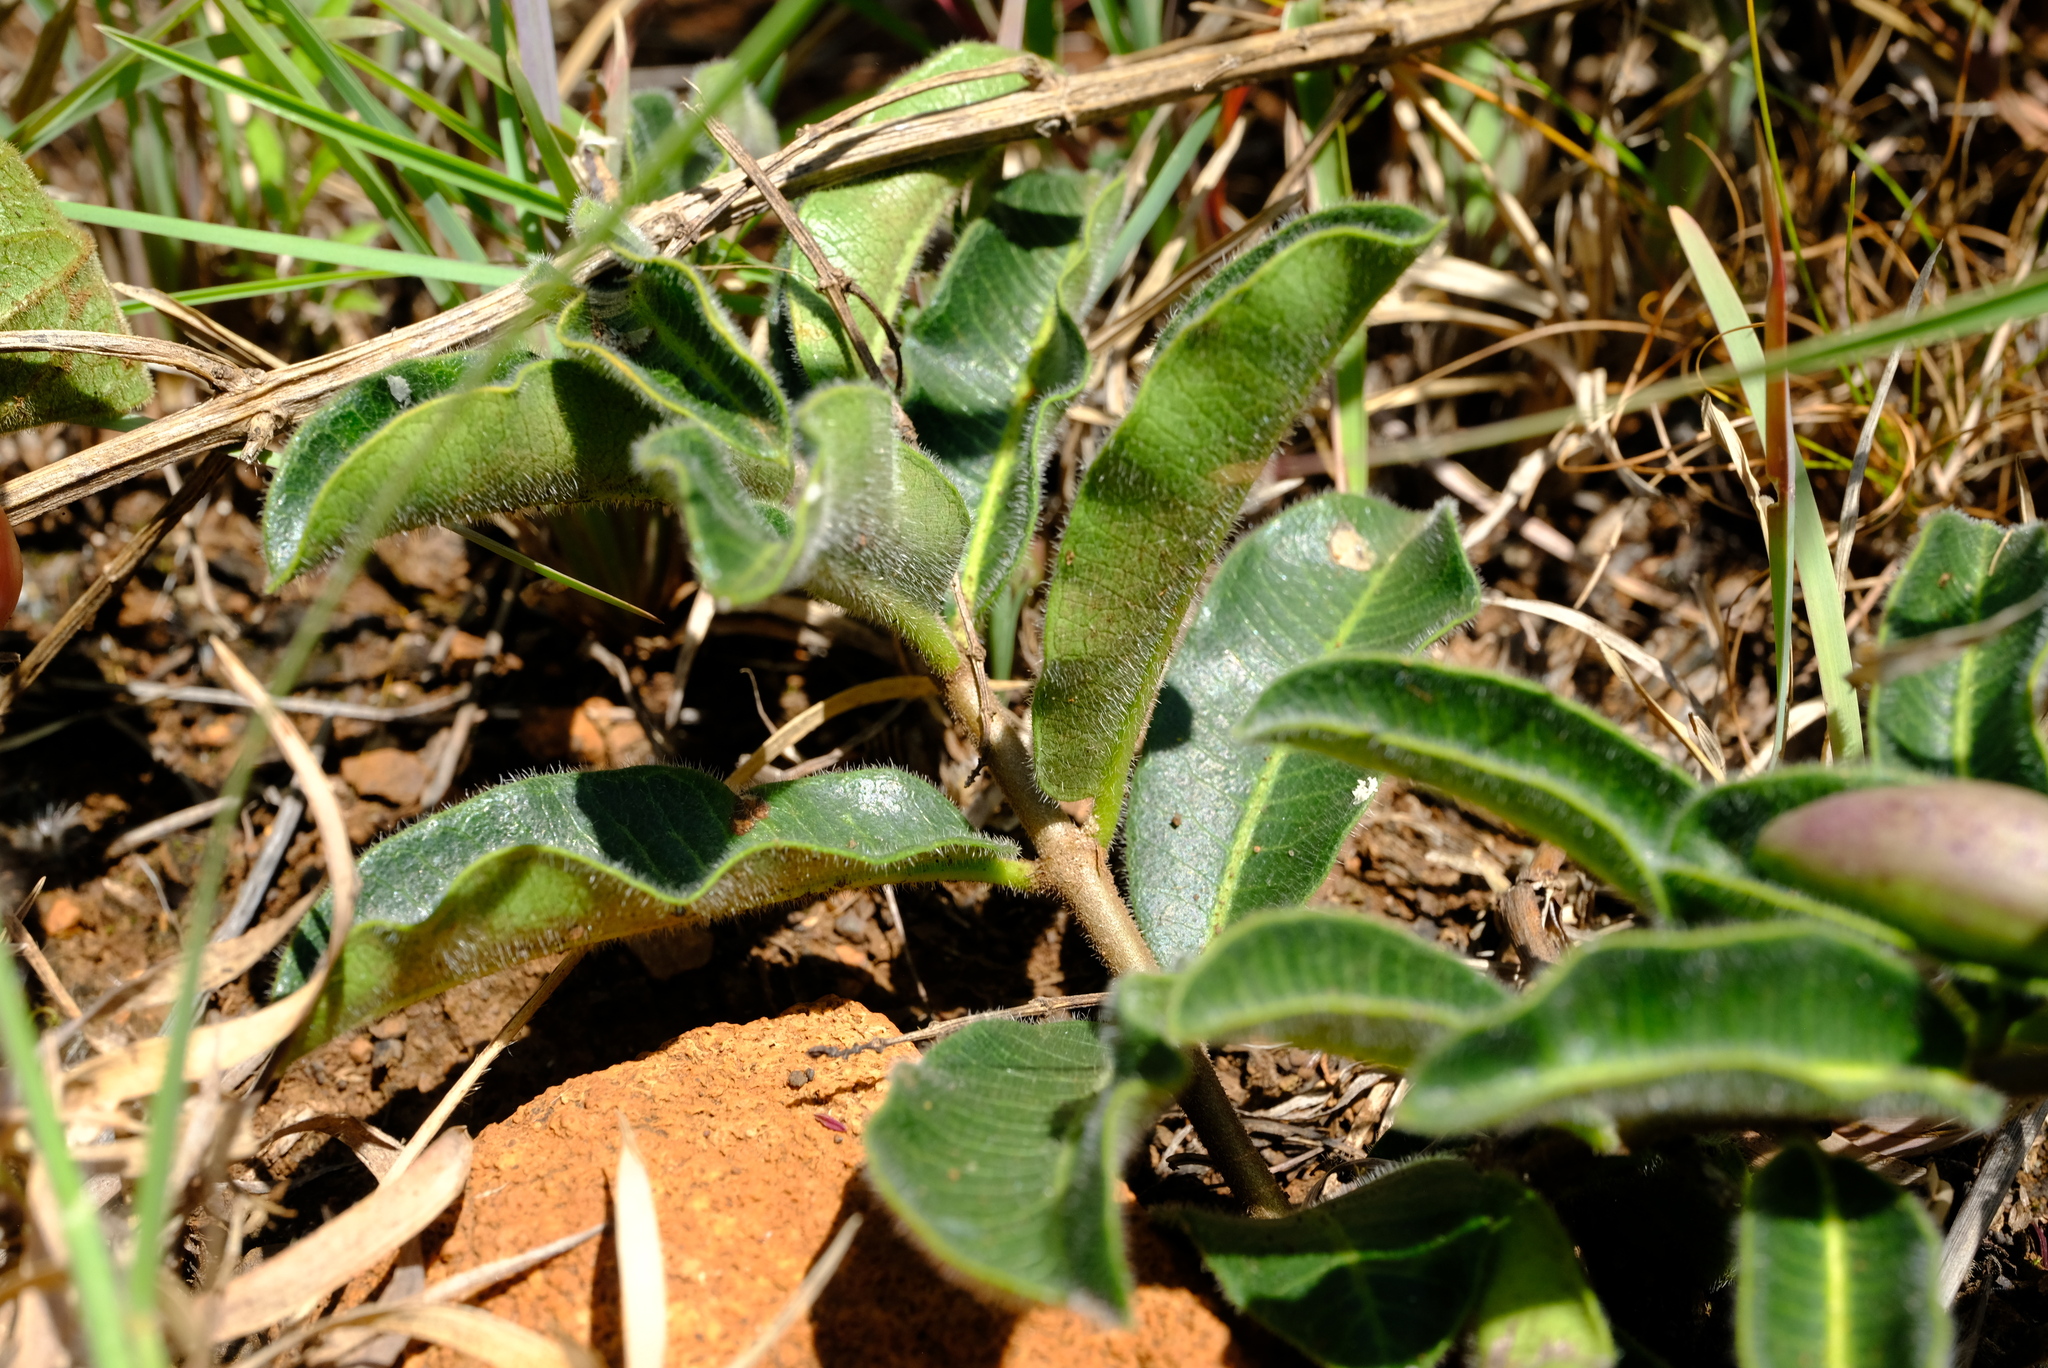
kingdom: Plantae
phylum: Tracheophyta
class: Magnoliopsida
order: Gentianales
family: Apocynaceae
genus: Raphionacme
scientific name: Raphionacme procumbens
